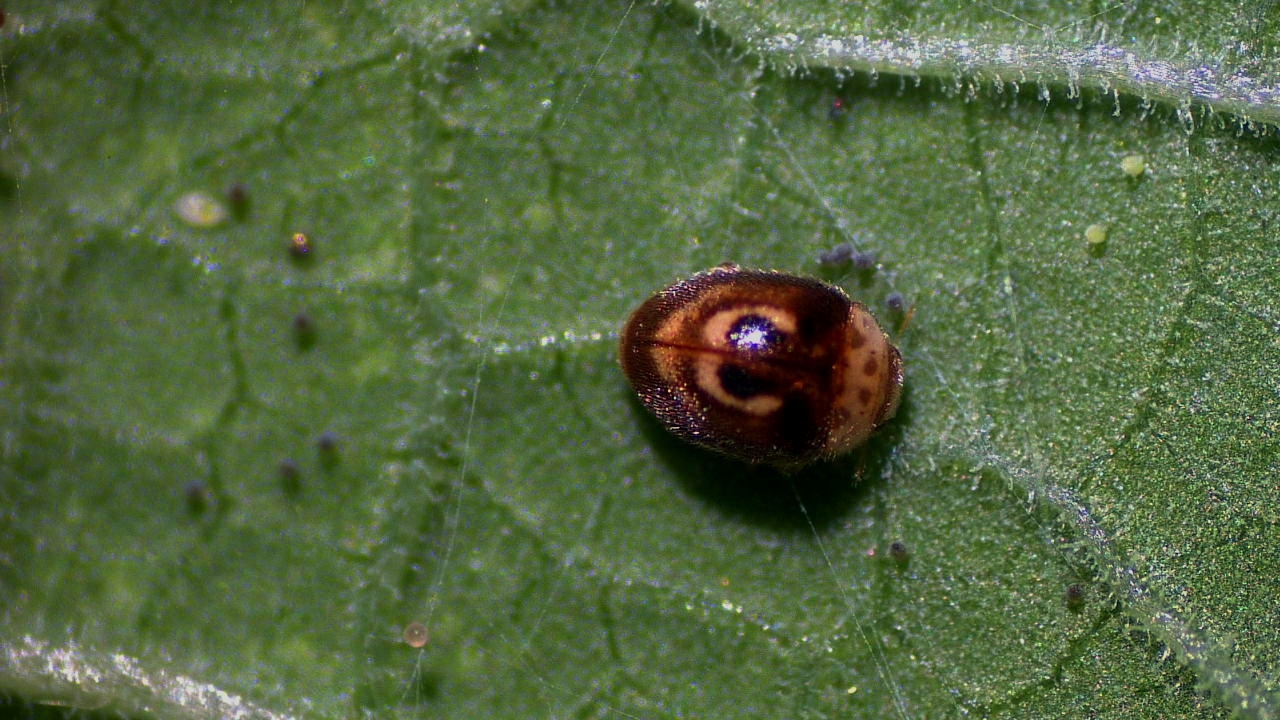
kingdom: Animalia
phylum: Arthropoda
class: Insecta
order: Coleoptera
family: Coccinellidae
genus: Clitostethus
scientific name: Clitostethus arcuatus
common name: Ladybird beetle
